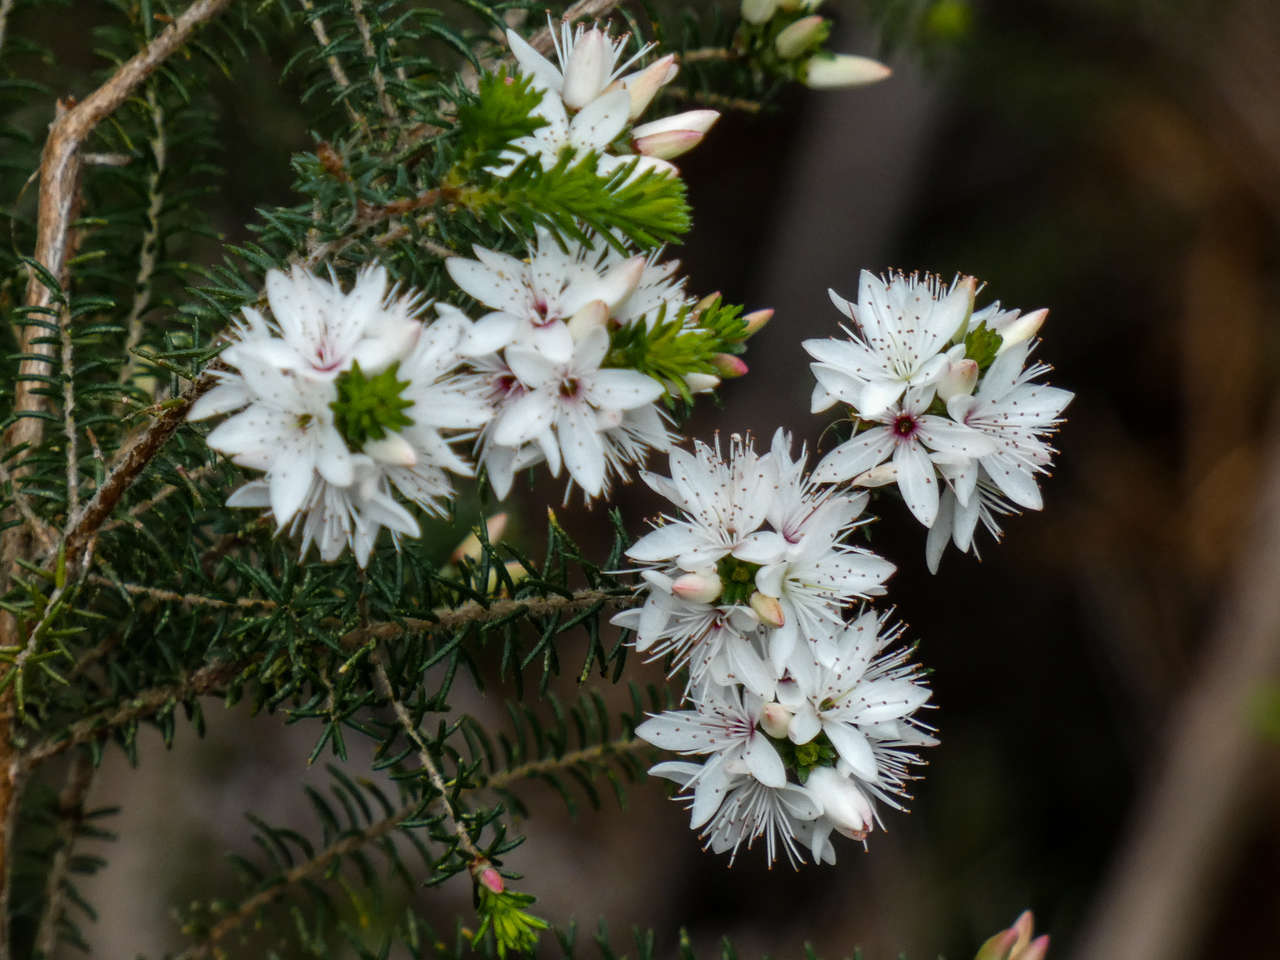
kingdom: Plantae
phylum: Tracheophyta
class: Magnoliopsida
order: Myrtales
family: Myrtaceae
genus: Calytrix
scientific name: Calytrix alpestris
